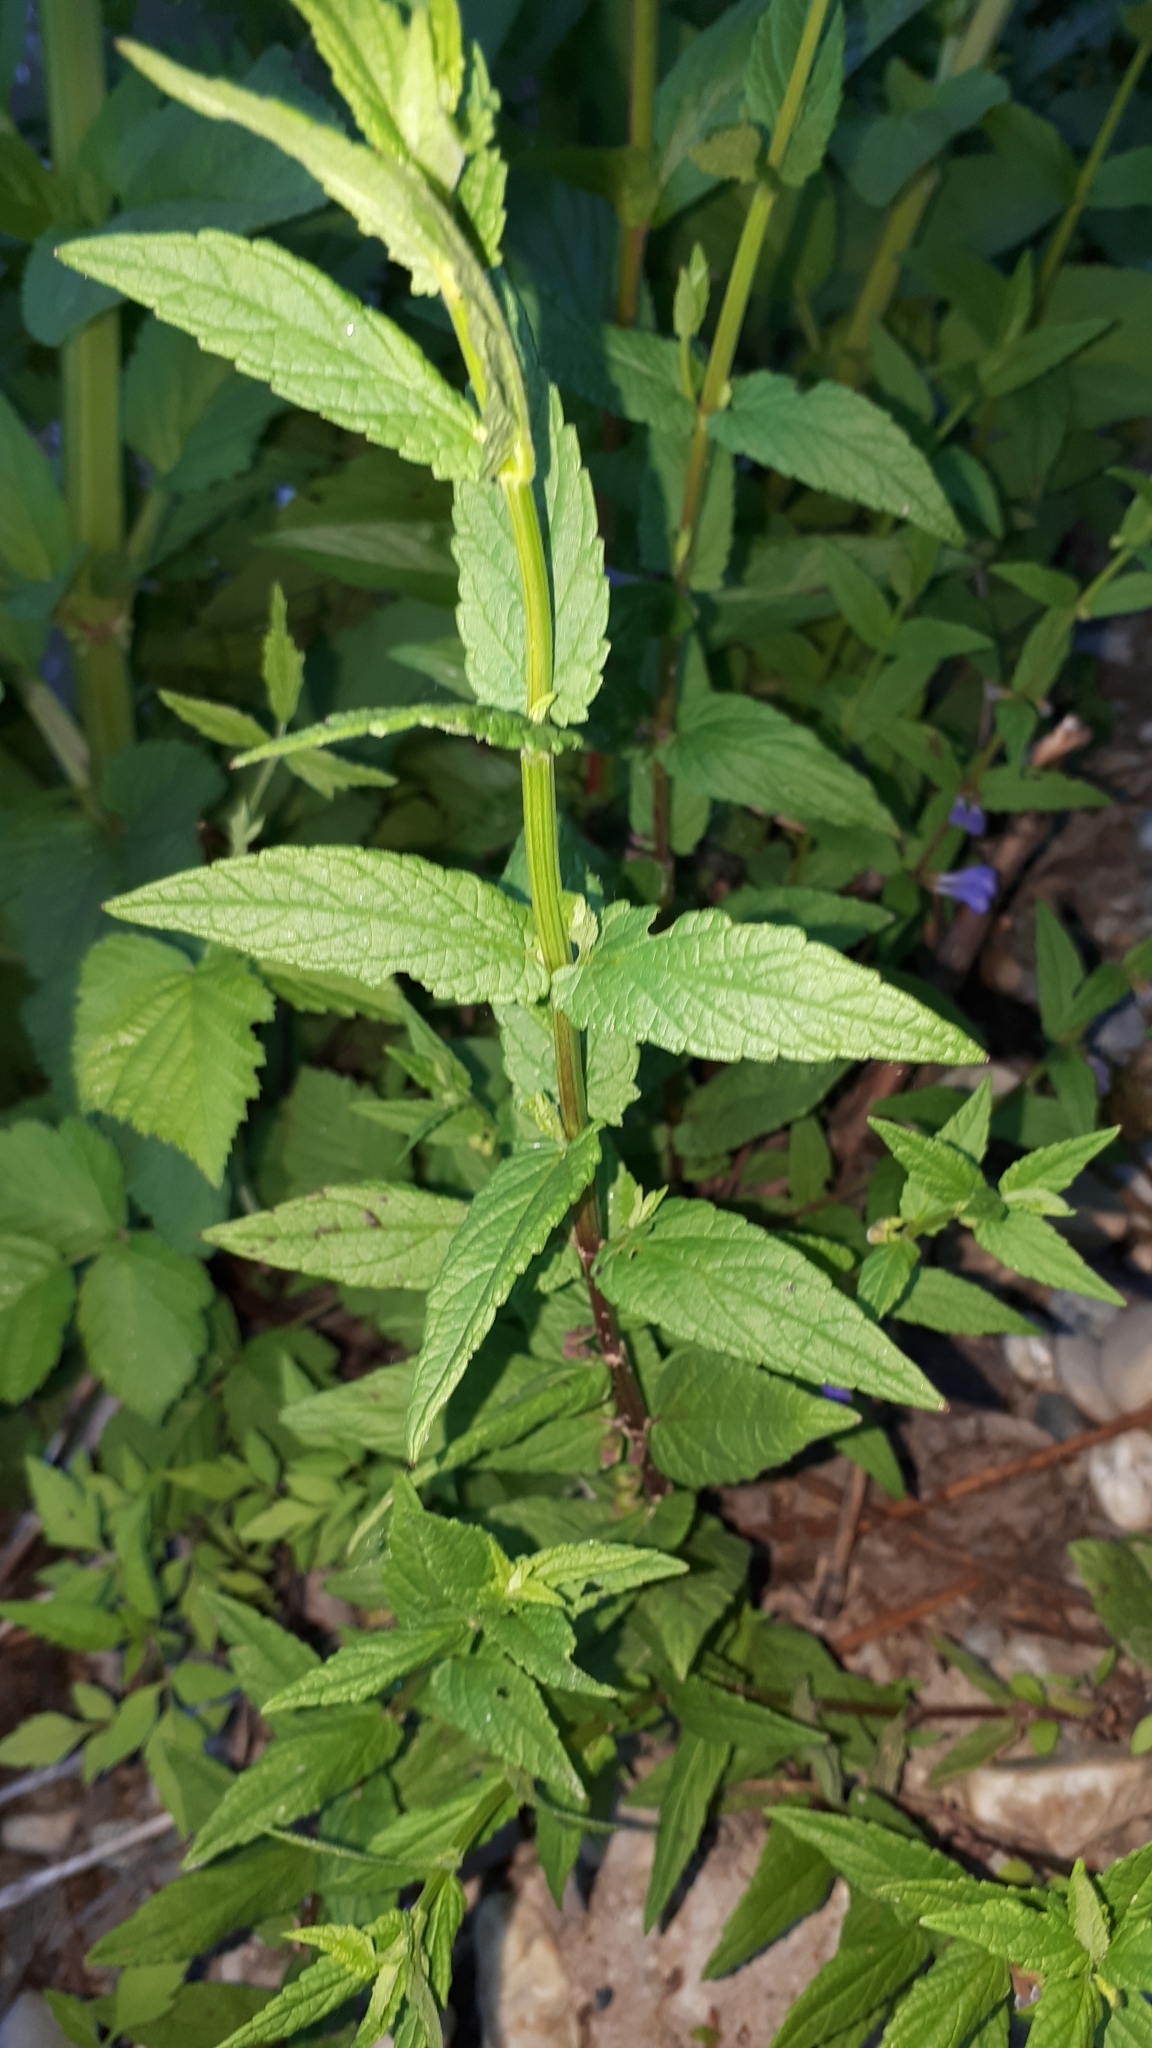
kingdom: Plantae
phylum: Tracheophyta
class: Magnoliopsida
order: Lamiales
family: Lamiaceae
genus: Scutellaria
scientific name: Scutellaria galericulata
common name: Skullcap
